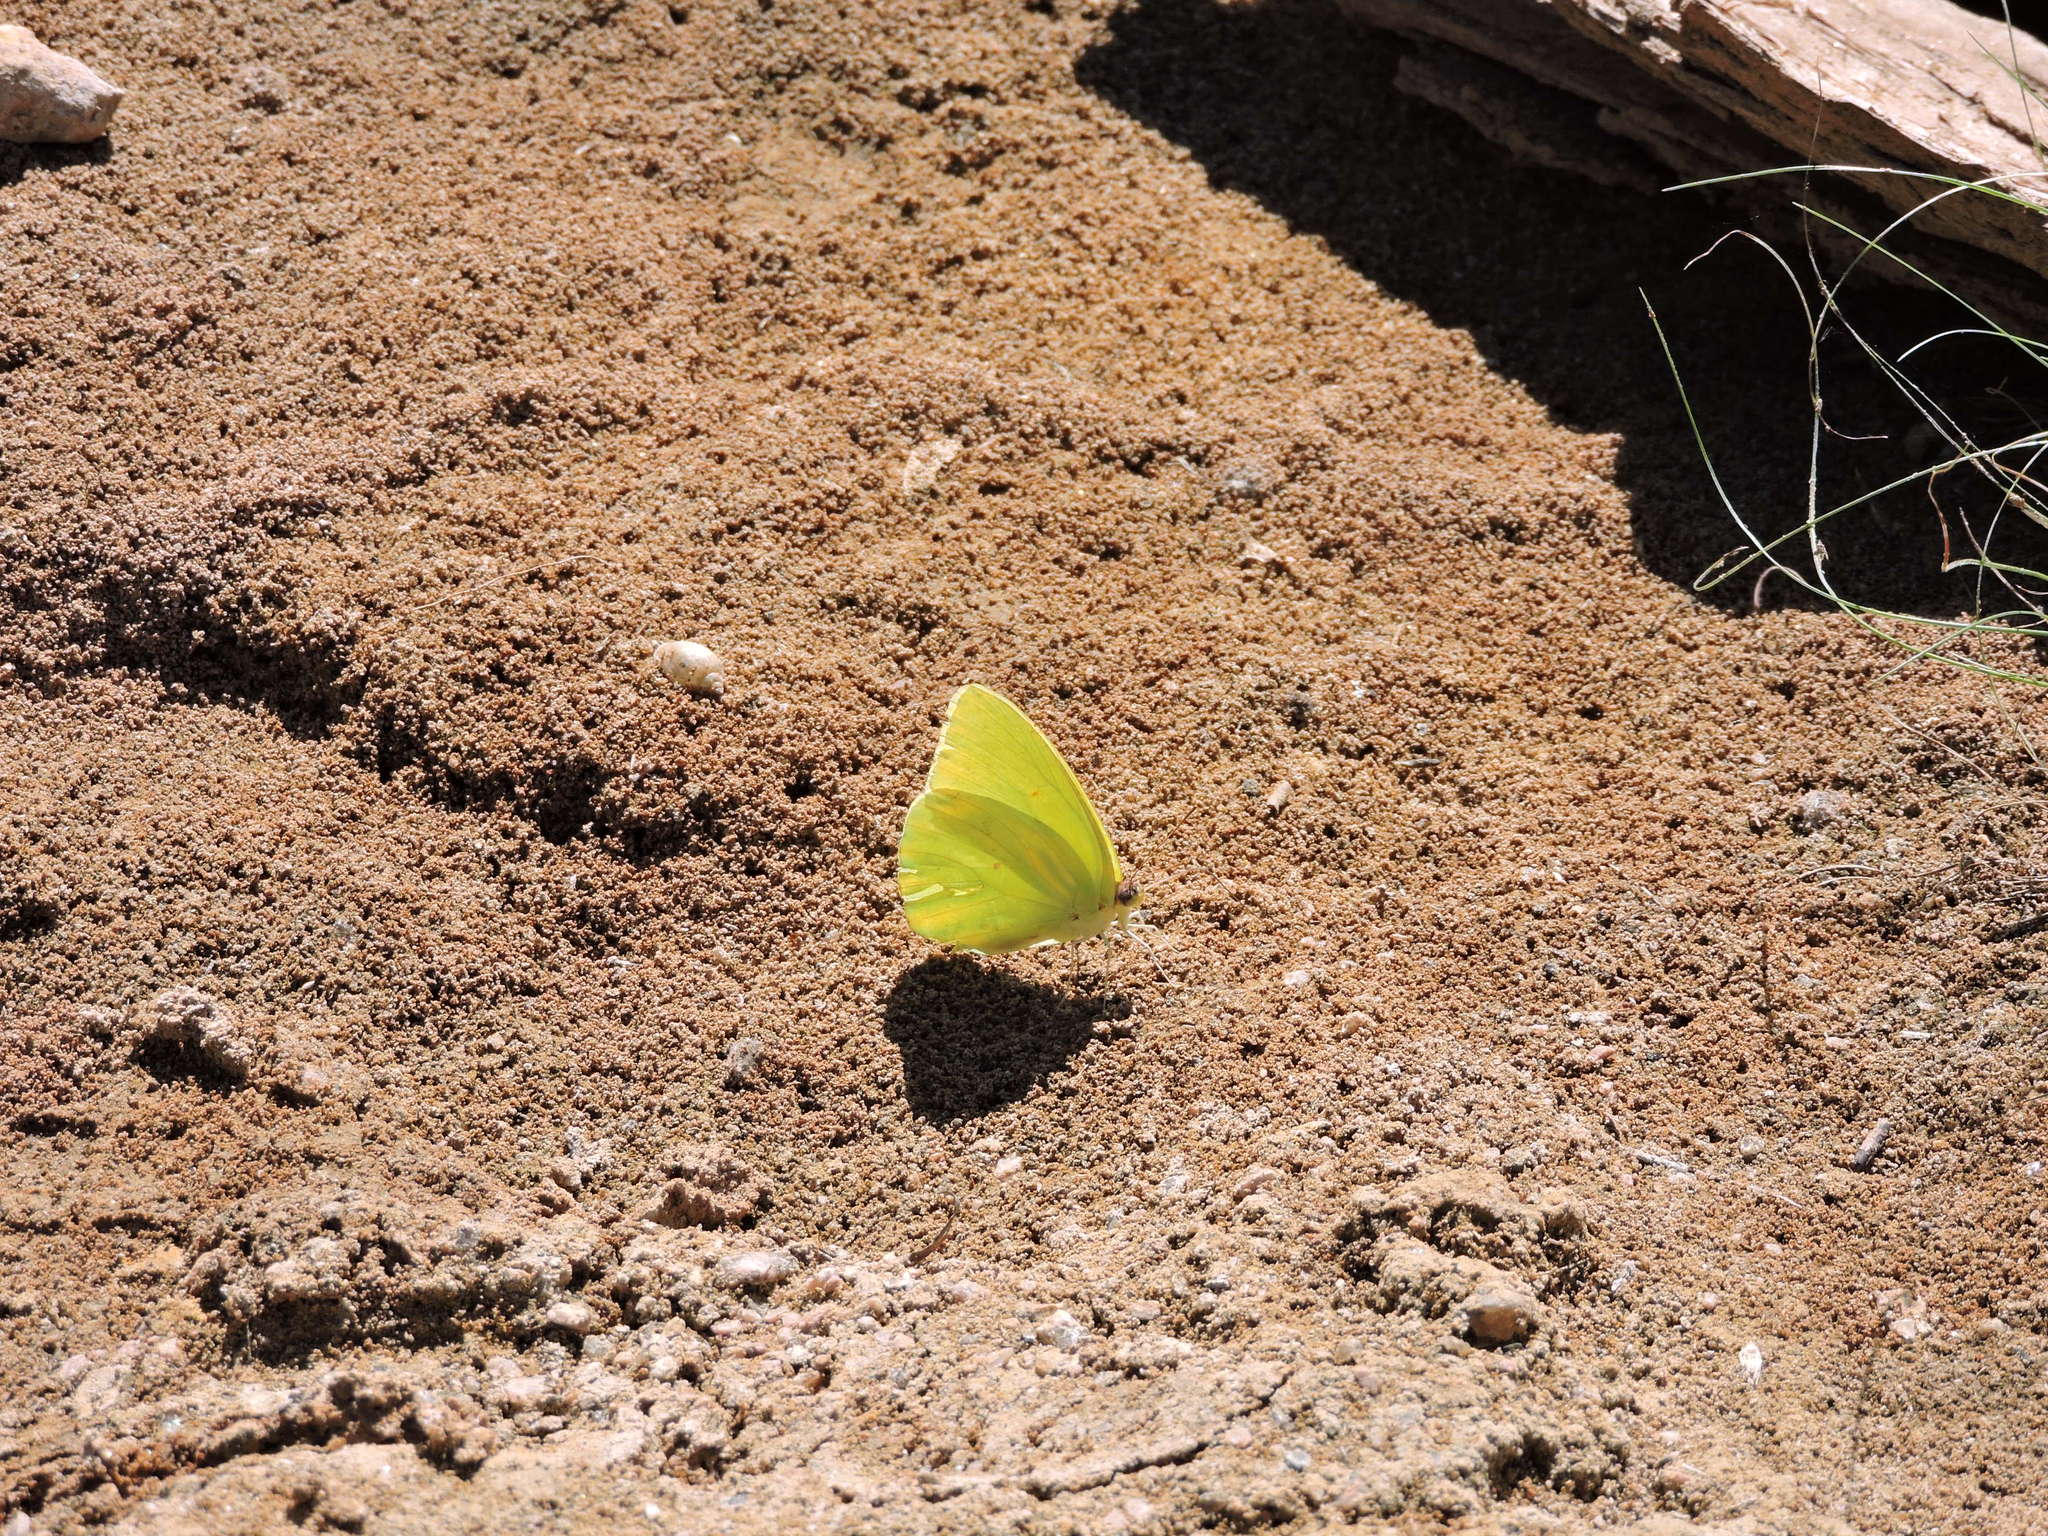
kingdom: Animalia
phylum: Arthropoda
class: Insecta
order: Lepidoptera
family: Pieridae
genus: Kricogonia
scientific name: Kricogonia lyside
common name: Guayacan sulphur,
